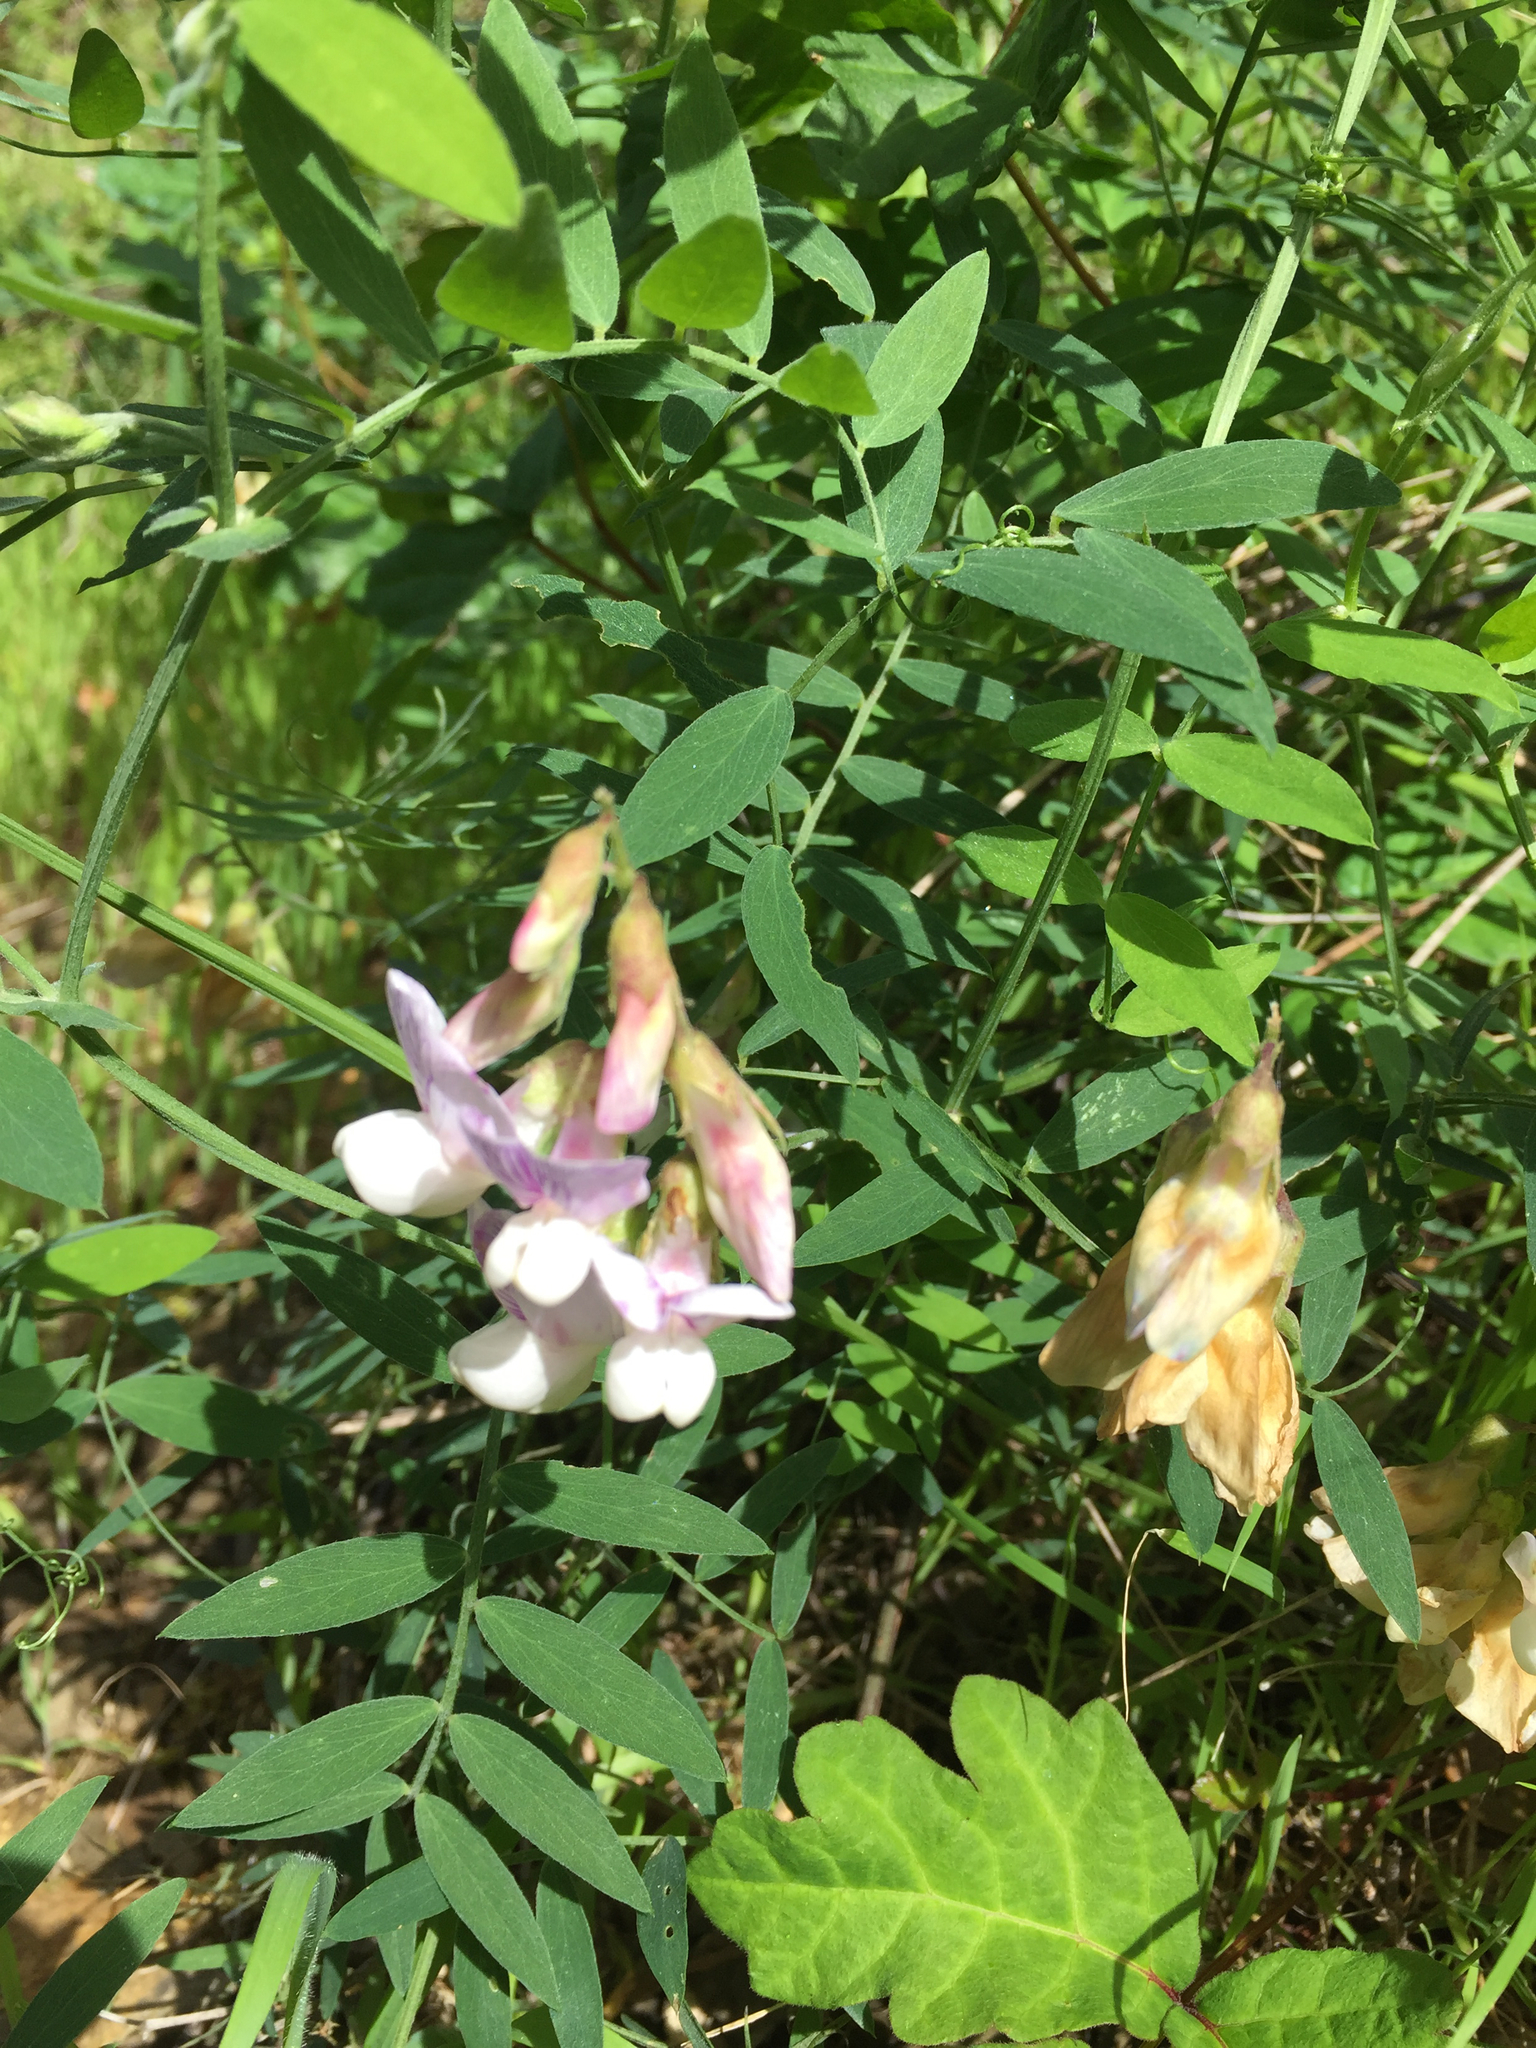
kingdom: Plantae
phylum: Tracheophyta
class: Magnoliopsida
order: Fabales
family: Fabaceae
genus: Lathyrus
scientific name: Lathyrus vestitus
